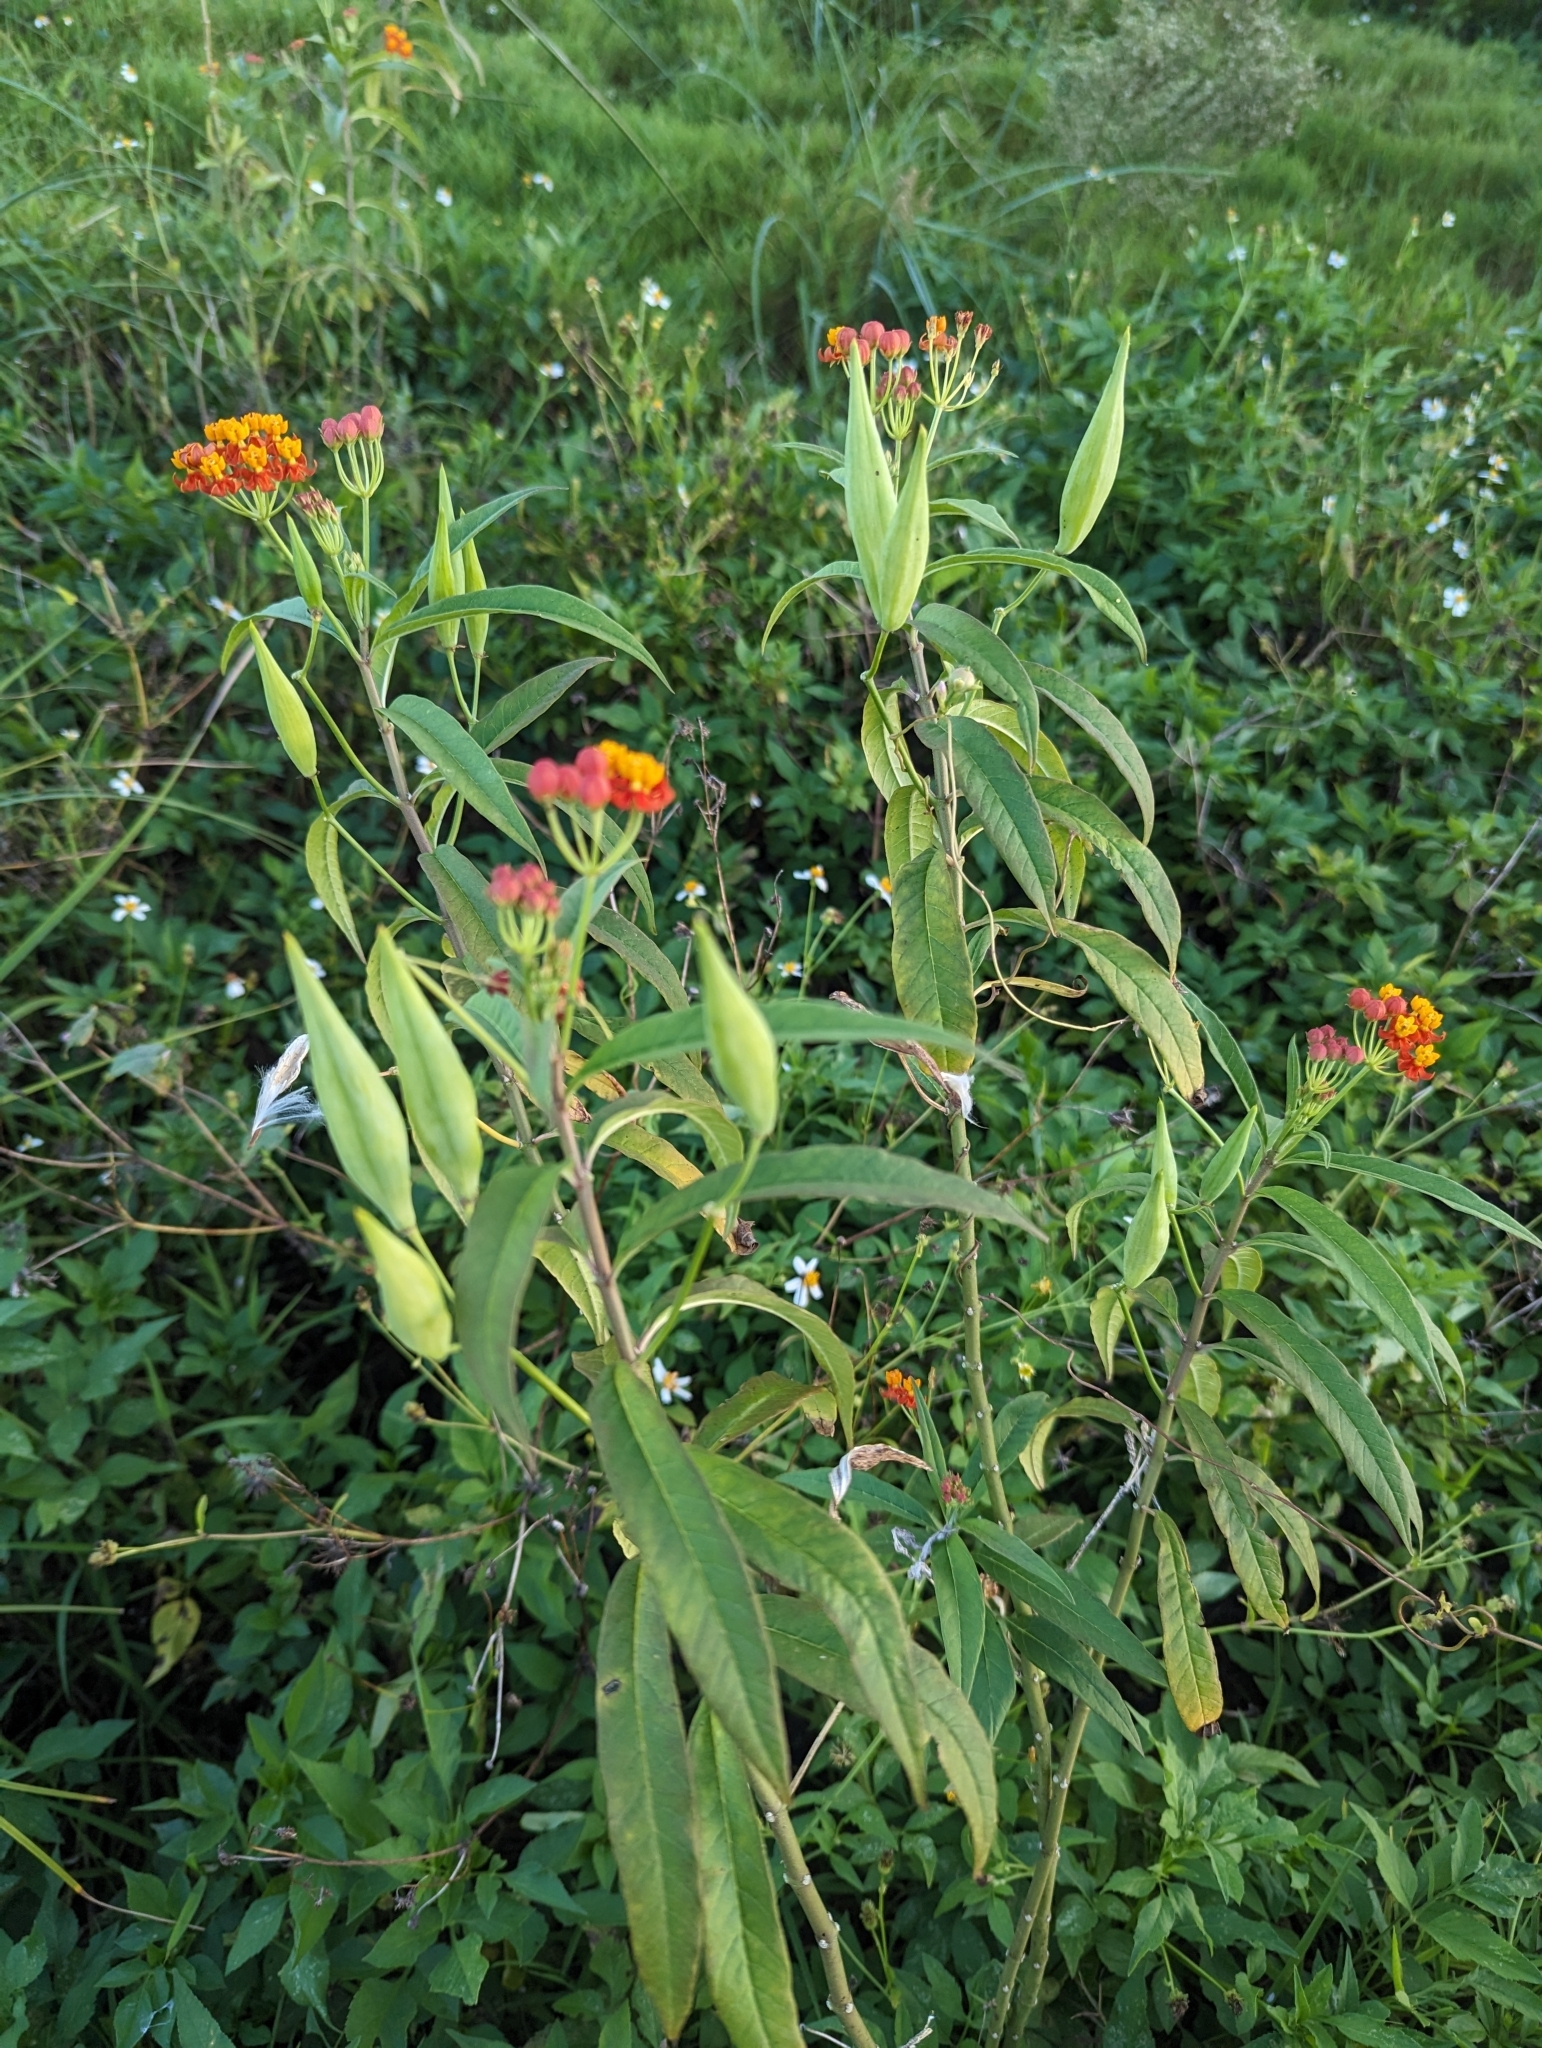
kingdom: Plantae
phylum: Tracheophyta
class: Magnoliopsida
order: Gentianales
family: Apocynaceae
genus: Asclepias
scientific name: Asclepias curassavica
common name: Bloodflower
